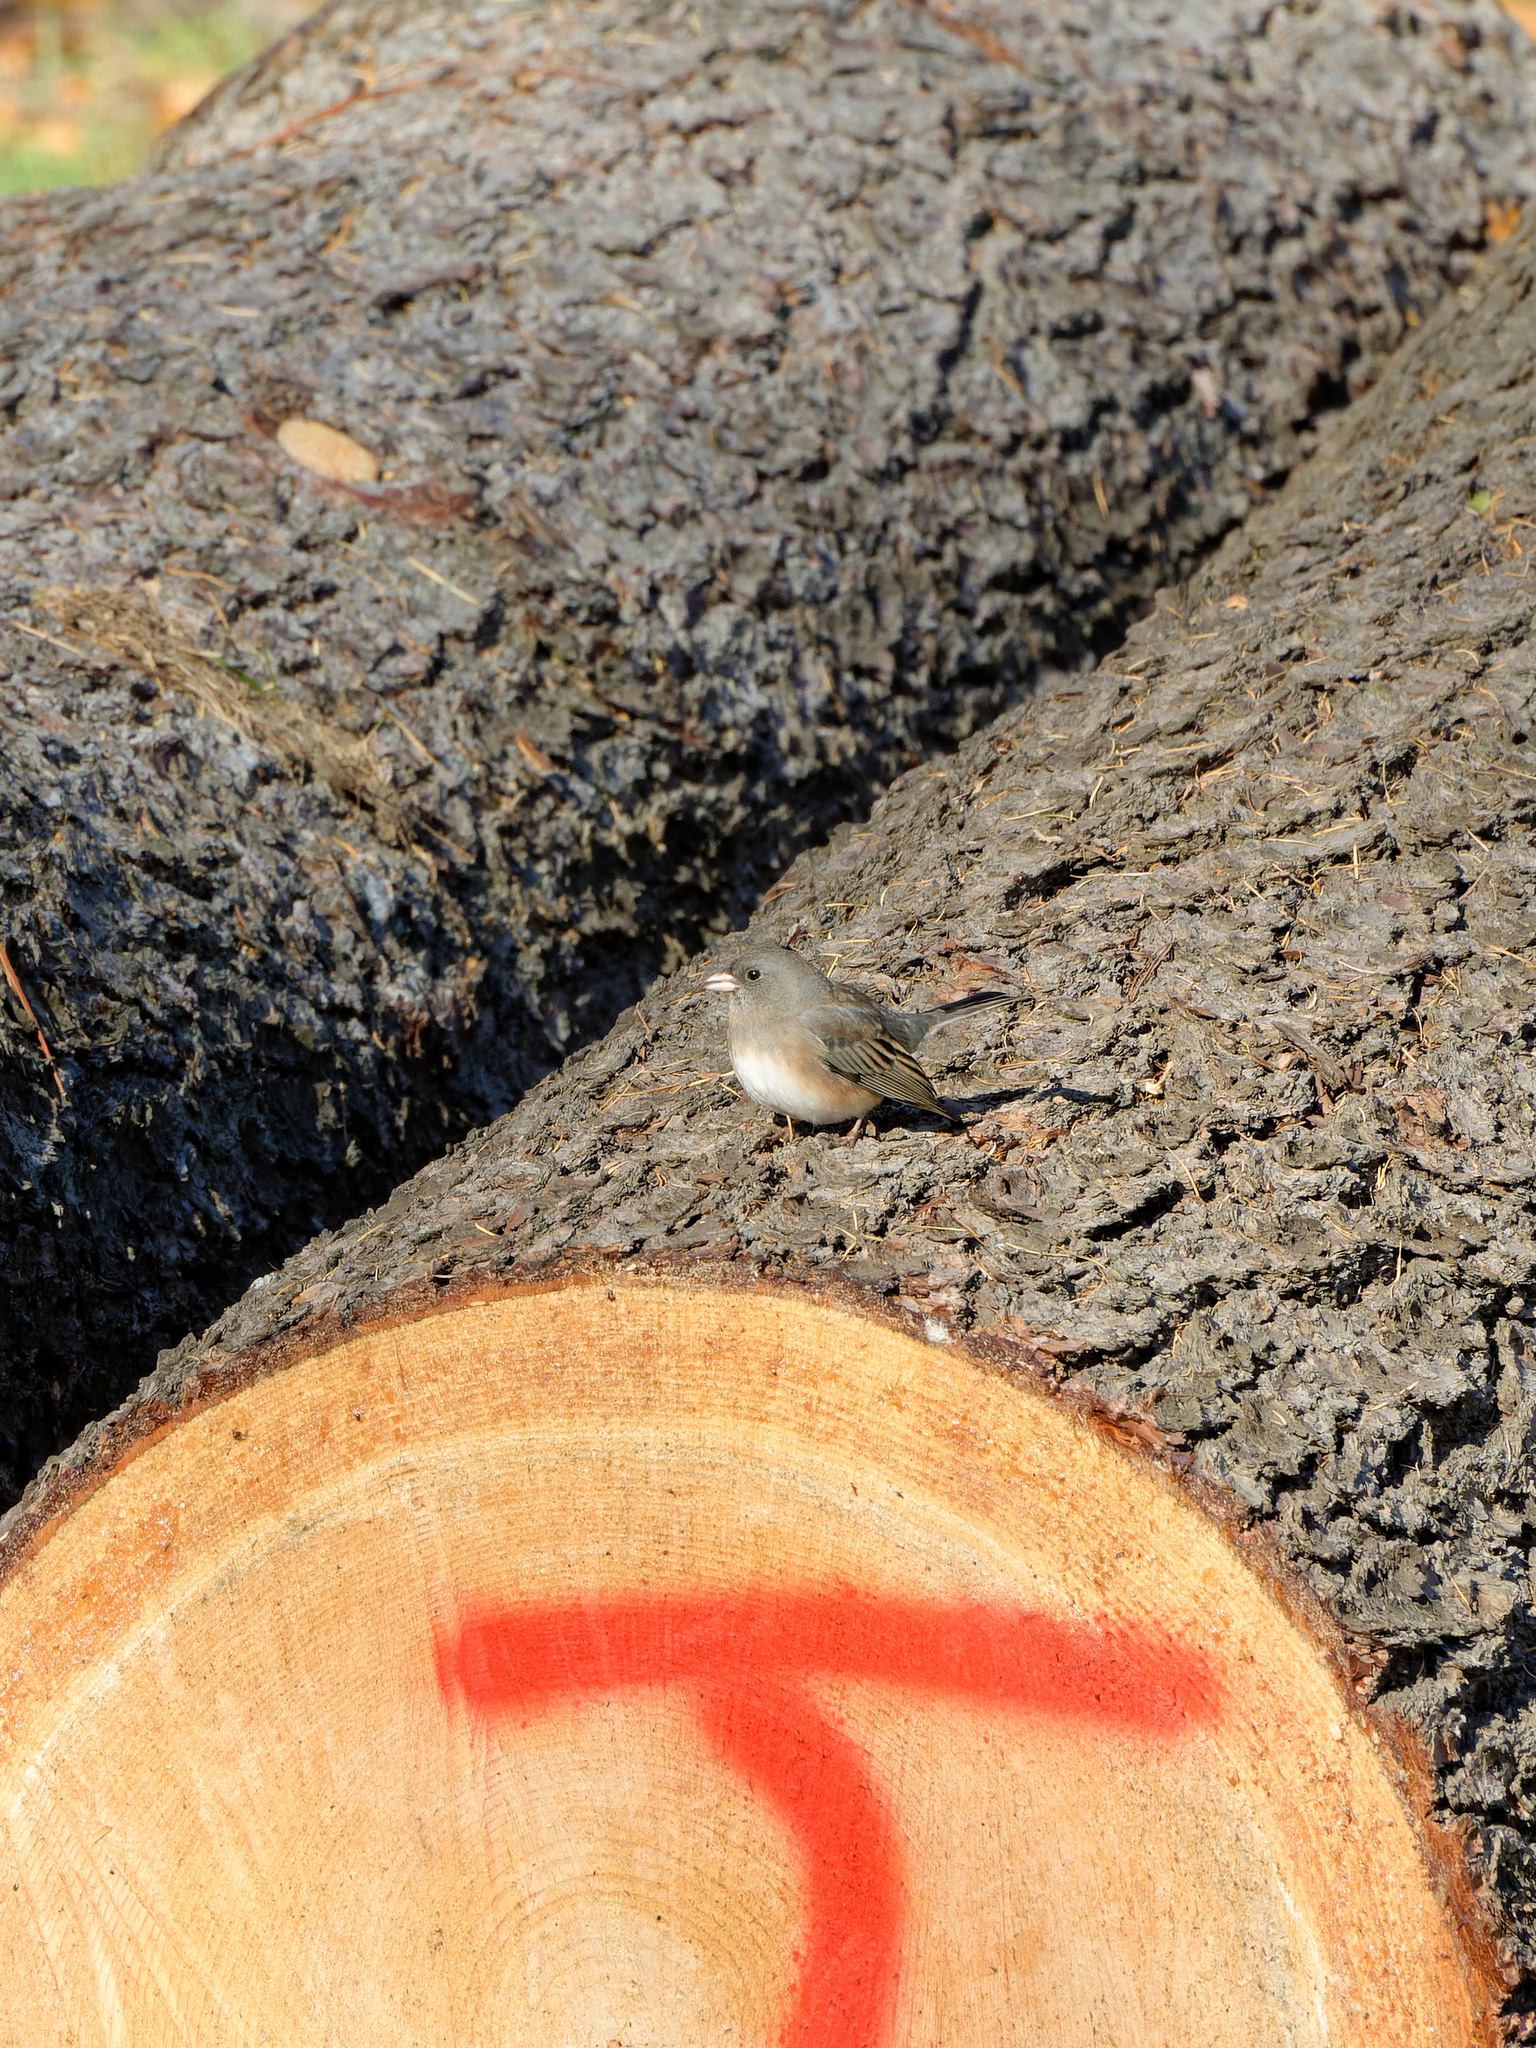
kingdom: Animalia
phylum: Chordata
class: Aves
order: Passeriformes
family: Passerellidae
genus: Junco
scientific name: Junco hyemalis
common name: Dark-eyed junco
